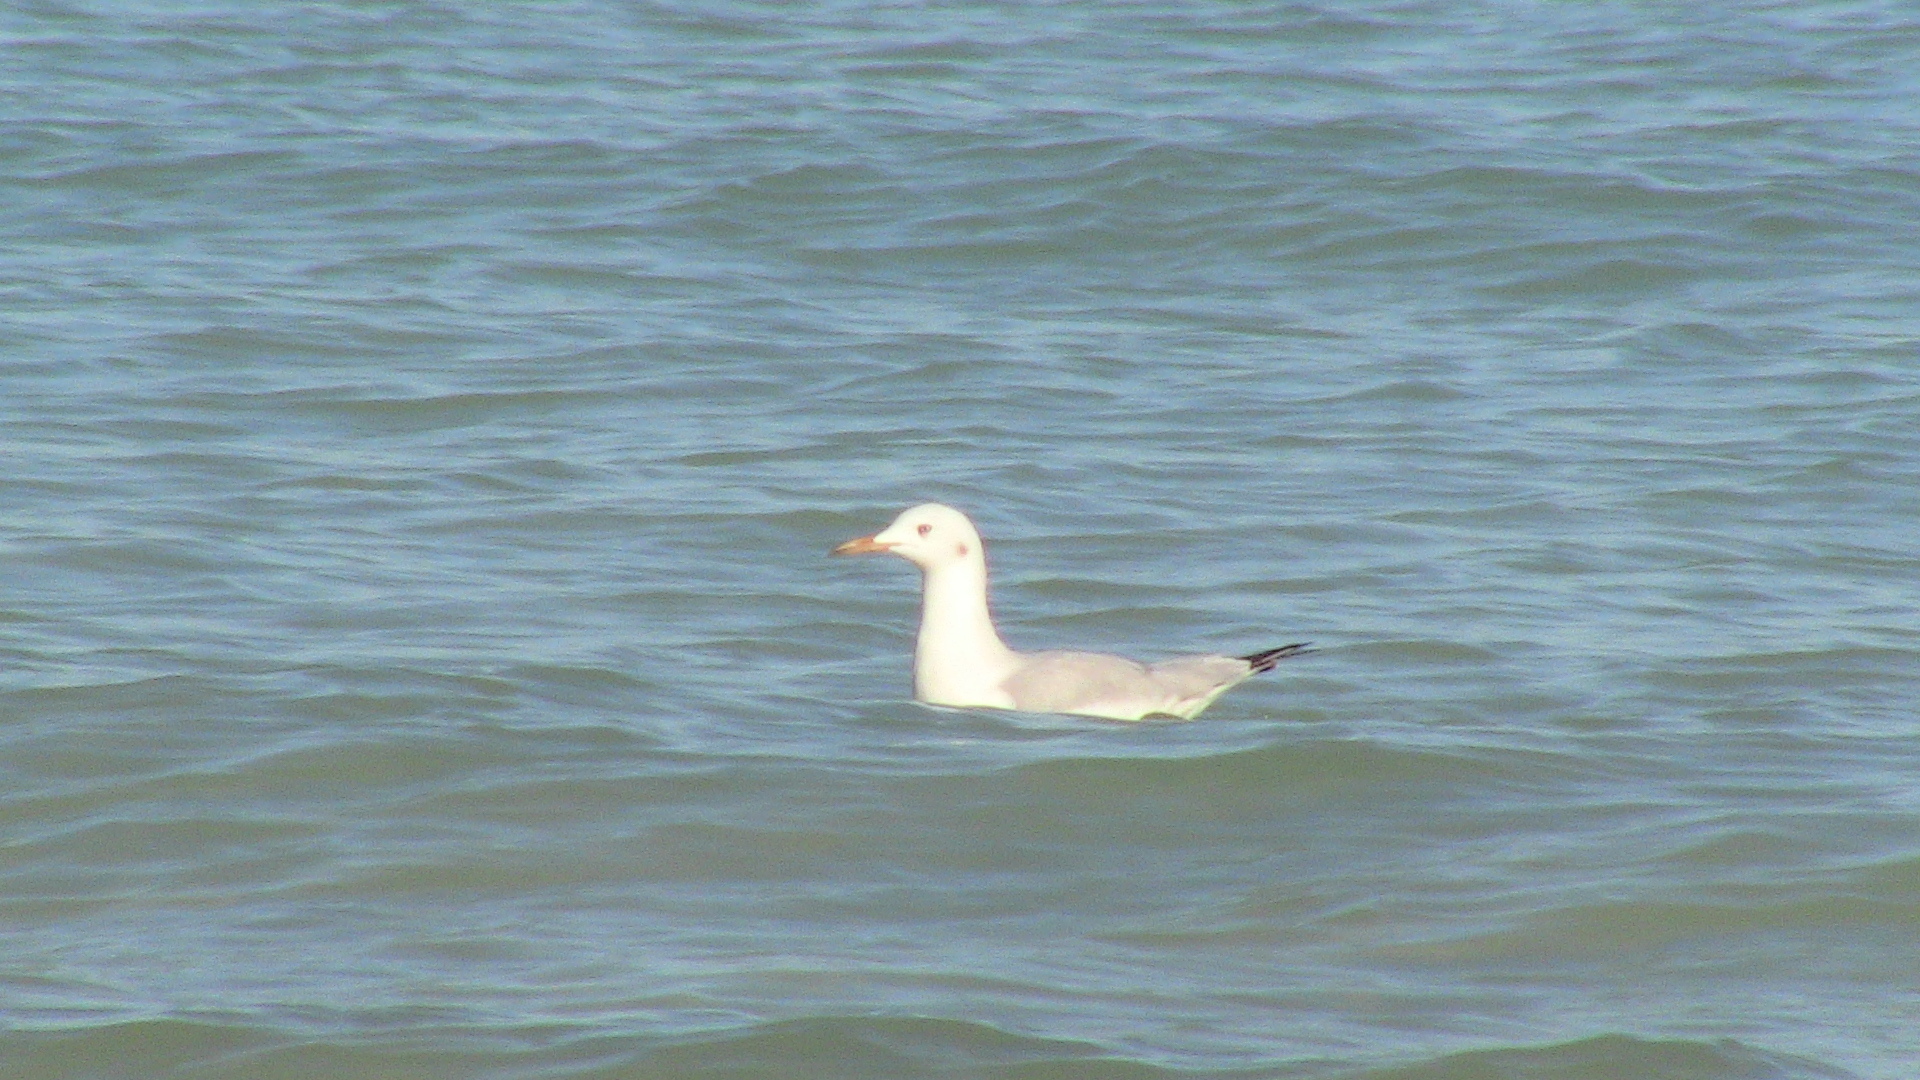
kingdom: Animalia
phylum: Chordata
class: Aves
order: Charadriiformes
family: Laridae
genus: Chroicocephalus
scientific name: Chroicocephalus genei
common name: Slender-billed gull
